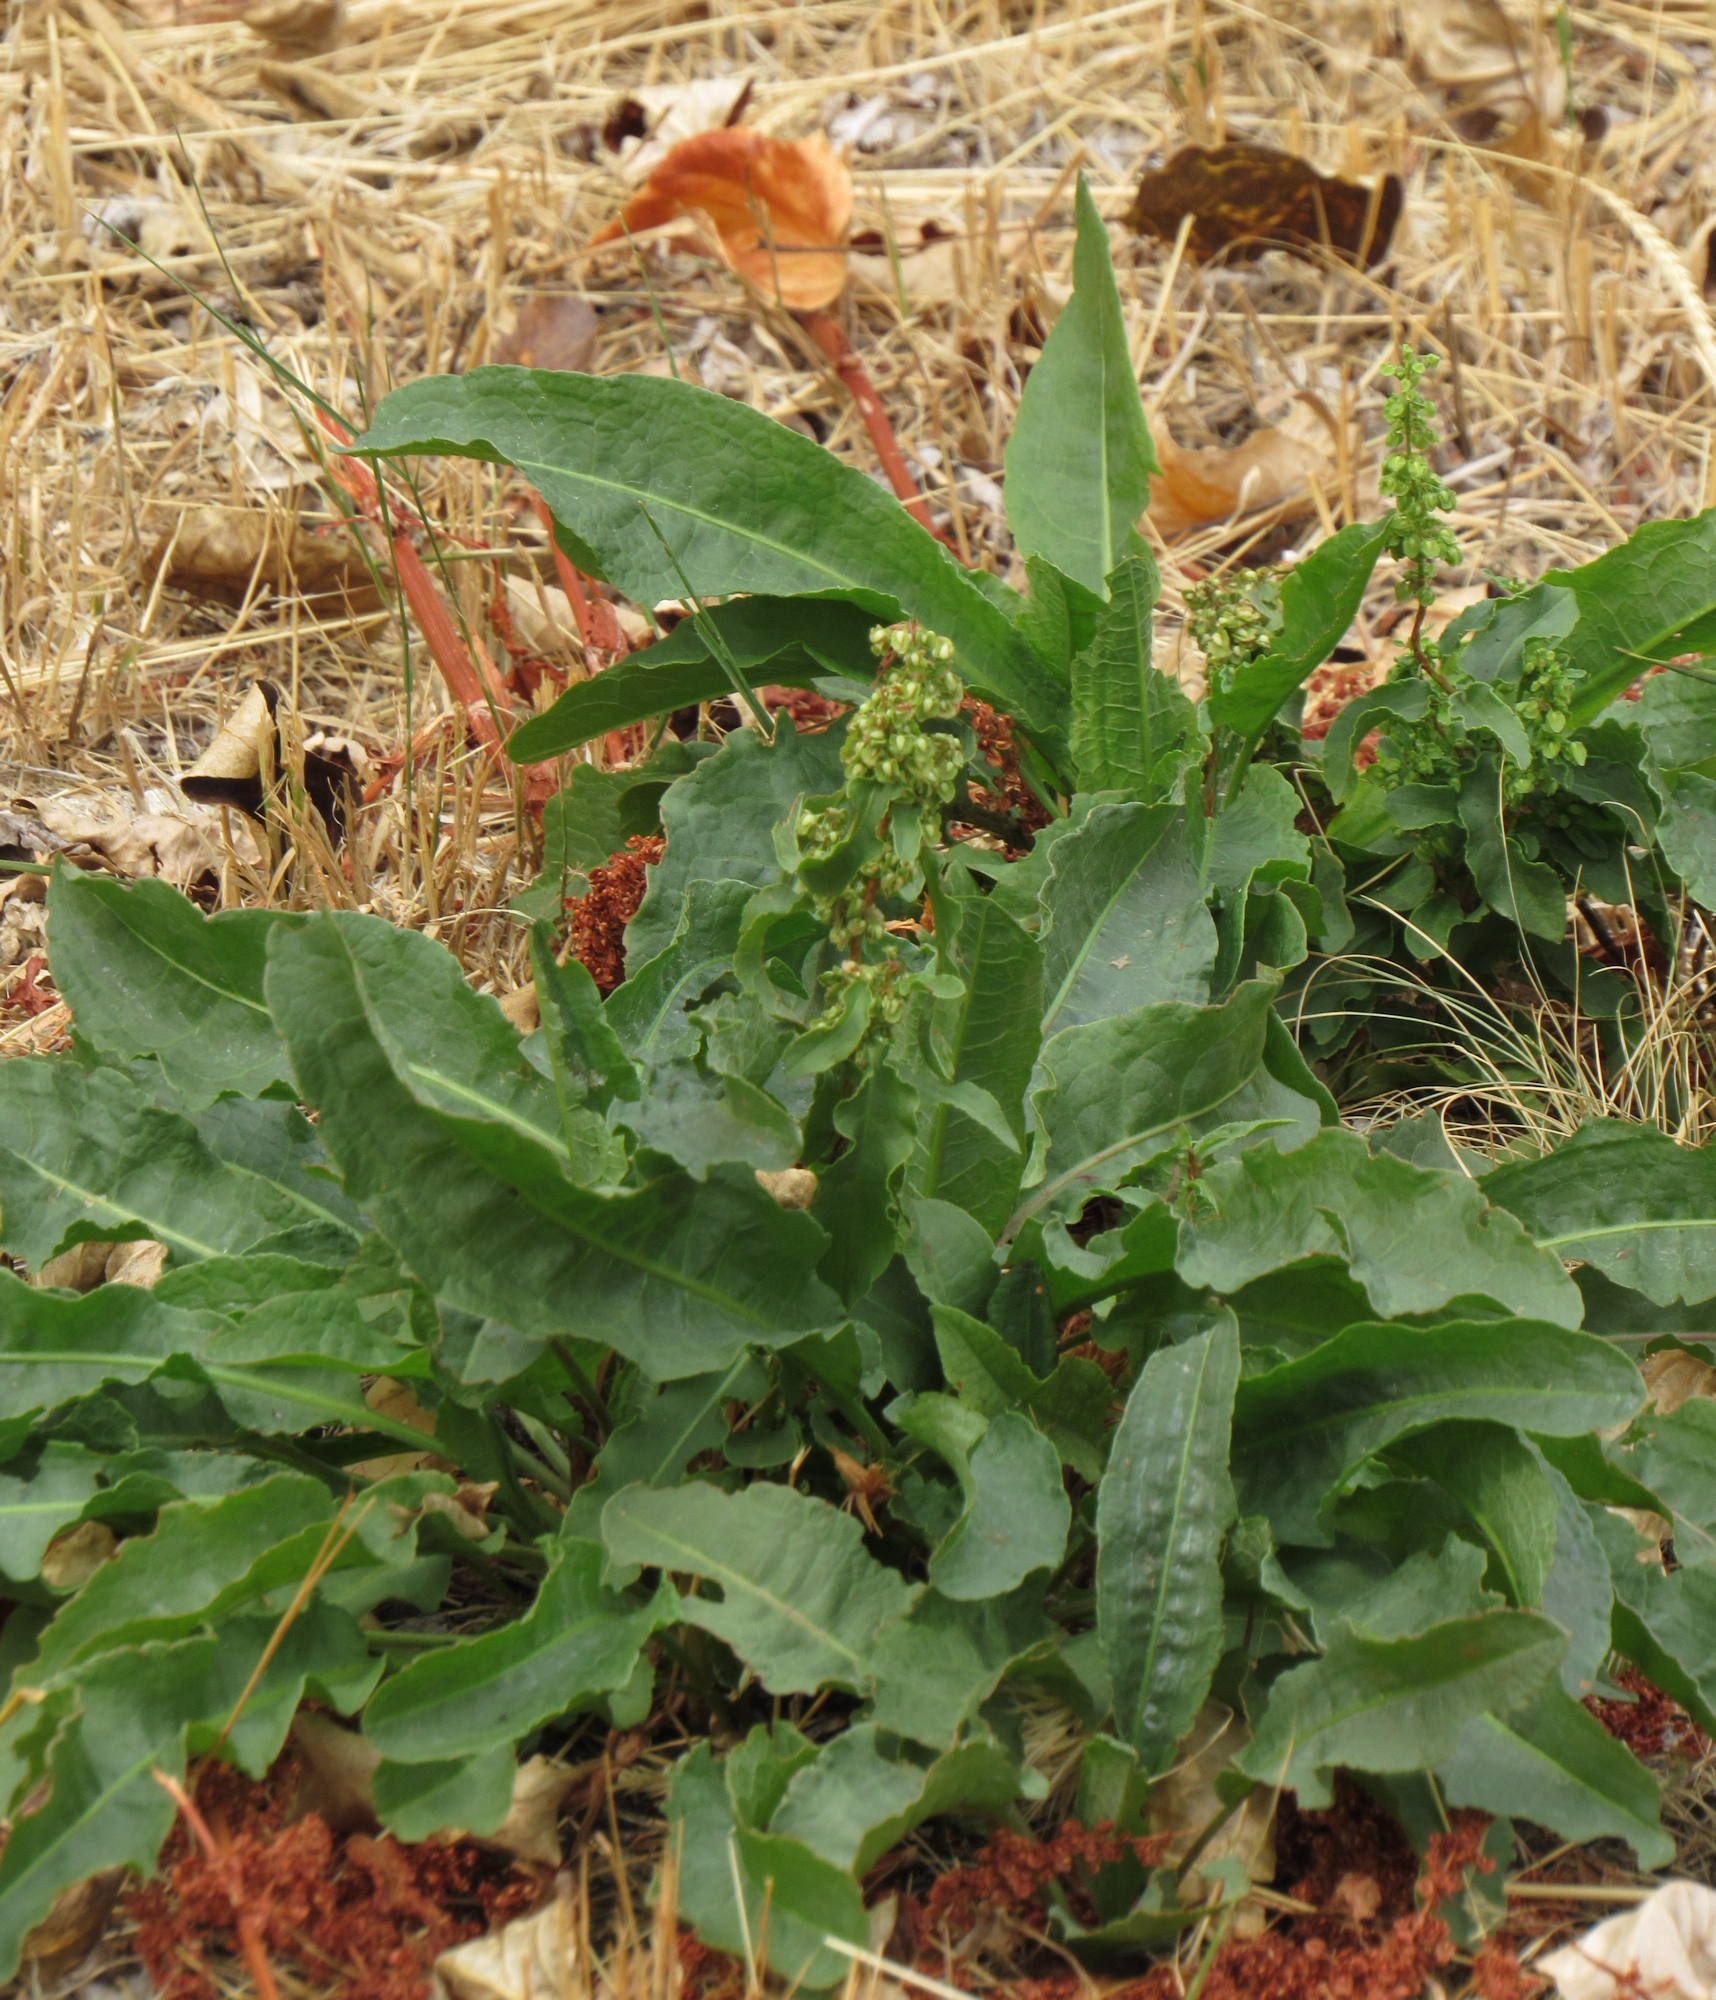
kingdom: Plantae
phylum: Tracheophyta
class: Magnoliopsida
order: Caryophyllales
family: Polygonaceae
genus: Rumex
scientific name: Rumex crispus
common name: Curled dock
